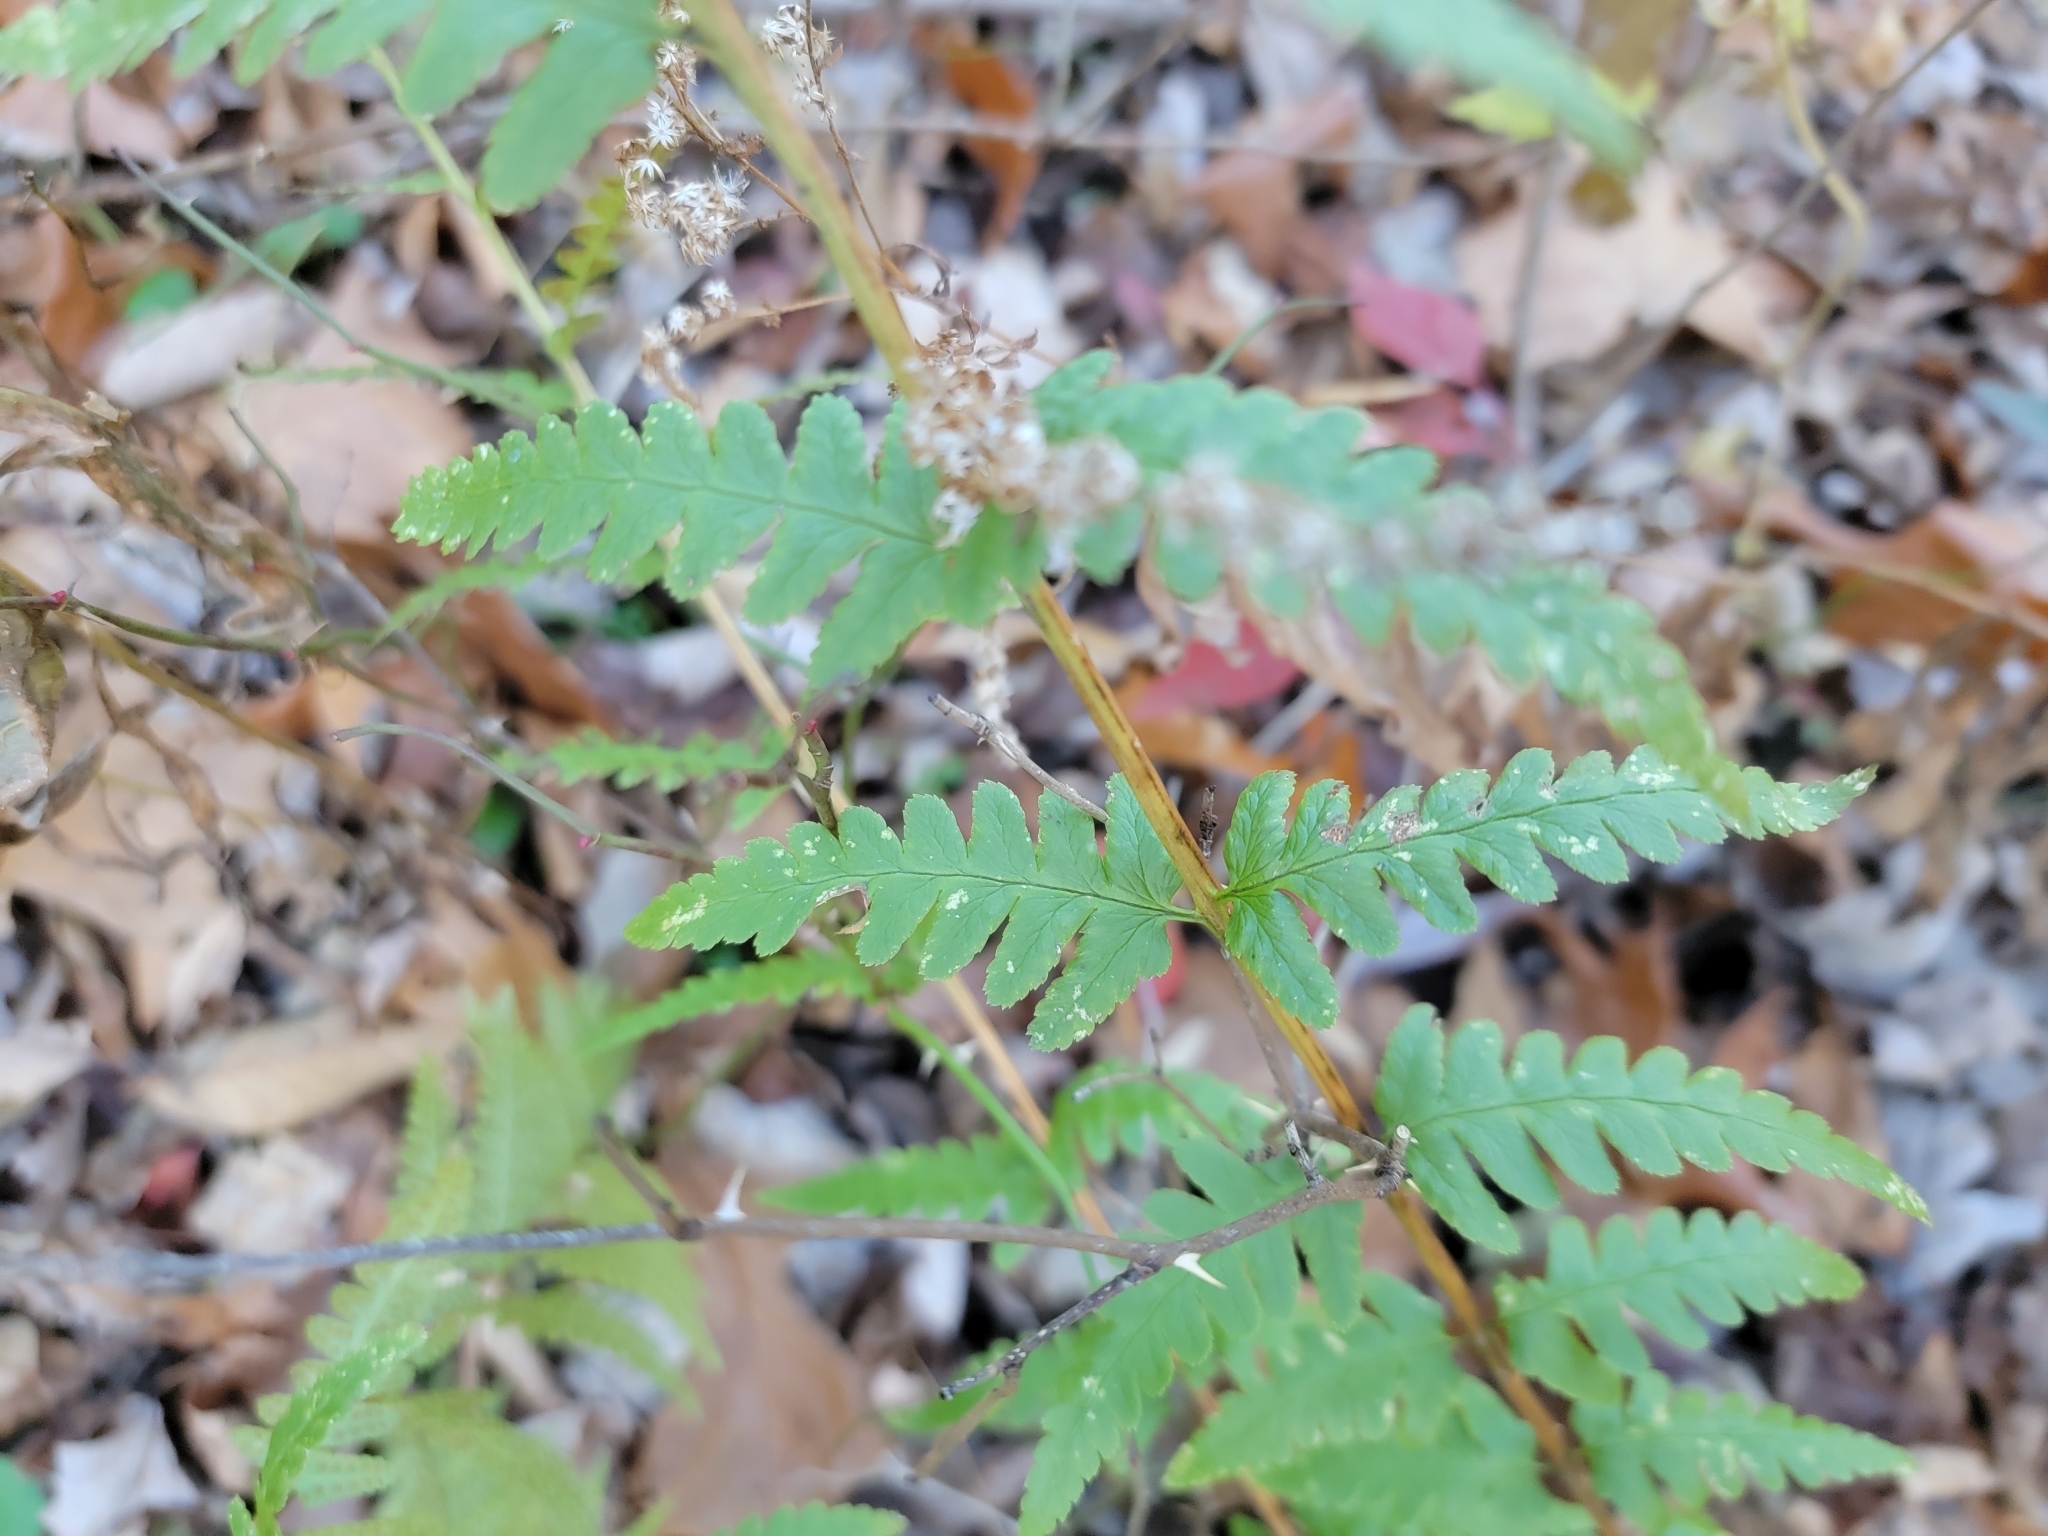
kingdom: Plantae
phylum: Tracheophyta
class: Polypodiopsida
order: Polypodiales
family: Dryopteridaceae
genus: Dryopteris
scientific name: Dryopteris cristata
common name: Crested wood fern
